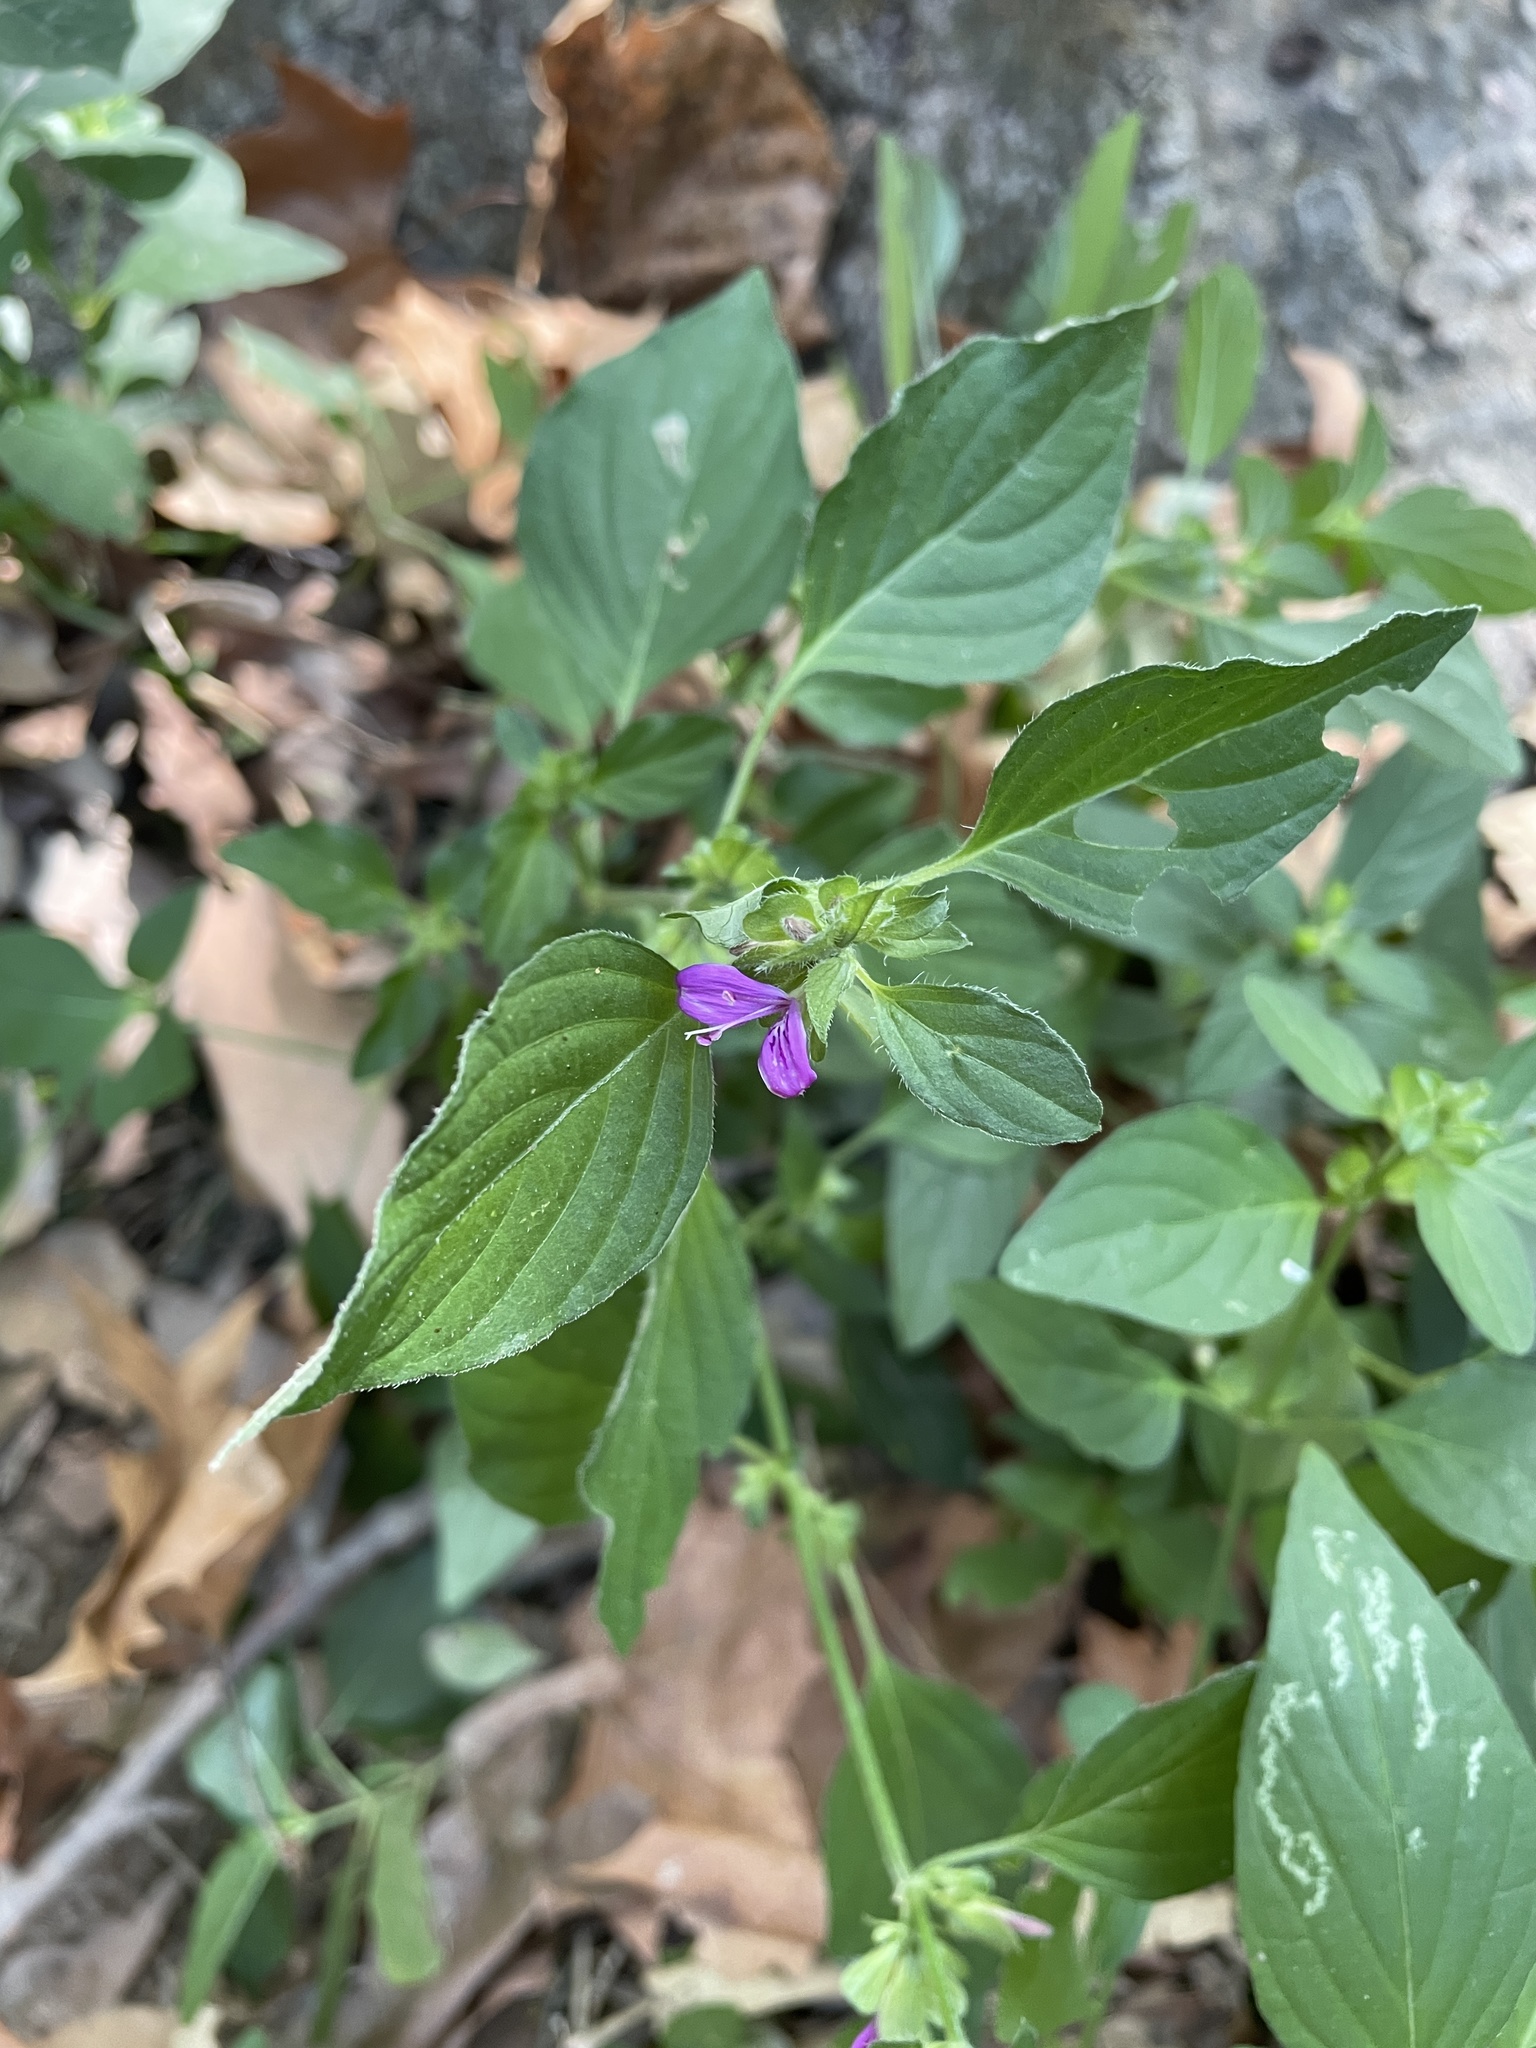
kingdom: Plantae
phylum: Tracheophyta
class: Magnoliopsida
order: Lamiales
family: Acanthaceae
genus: Dicliptera
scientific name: Dicliptera brachiata
